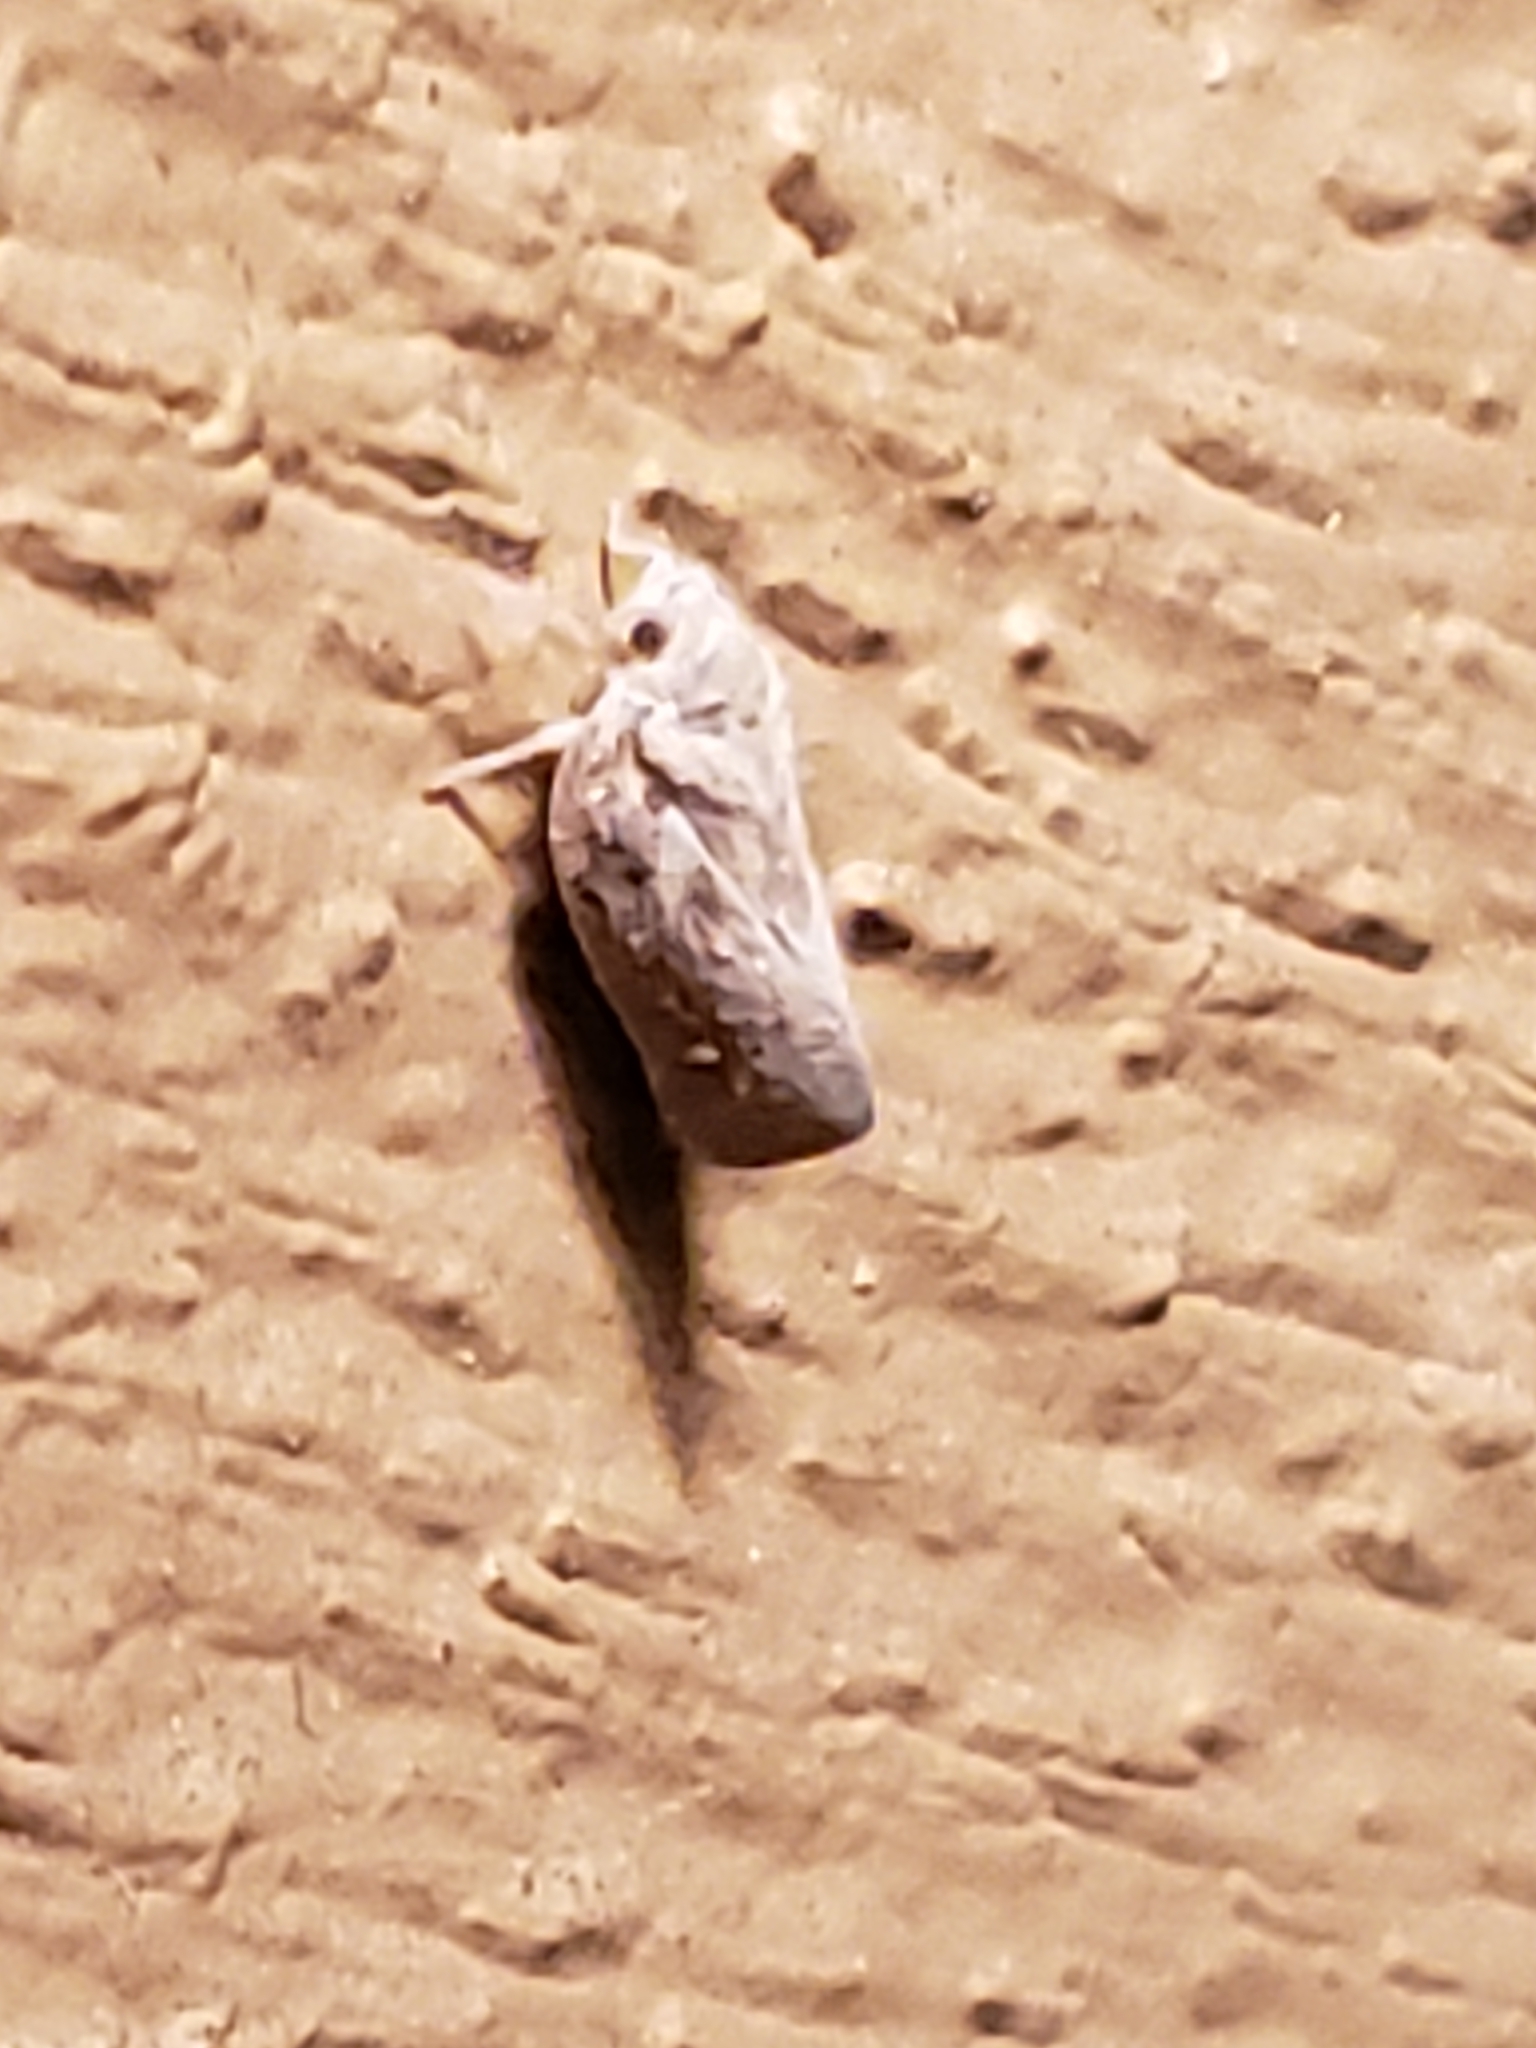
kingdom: Animalia
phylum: Arthropoda
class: Insecta
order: Hemiptera
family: Flatidae
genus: Metcalfa
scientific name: Metcalfa pruinosa
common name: Citrus flatid planthopper
